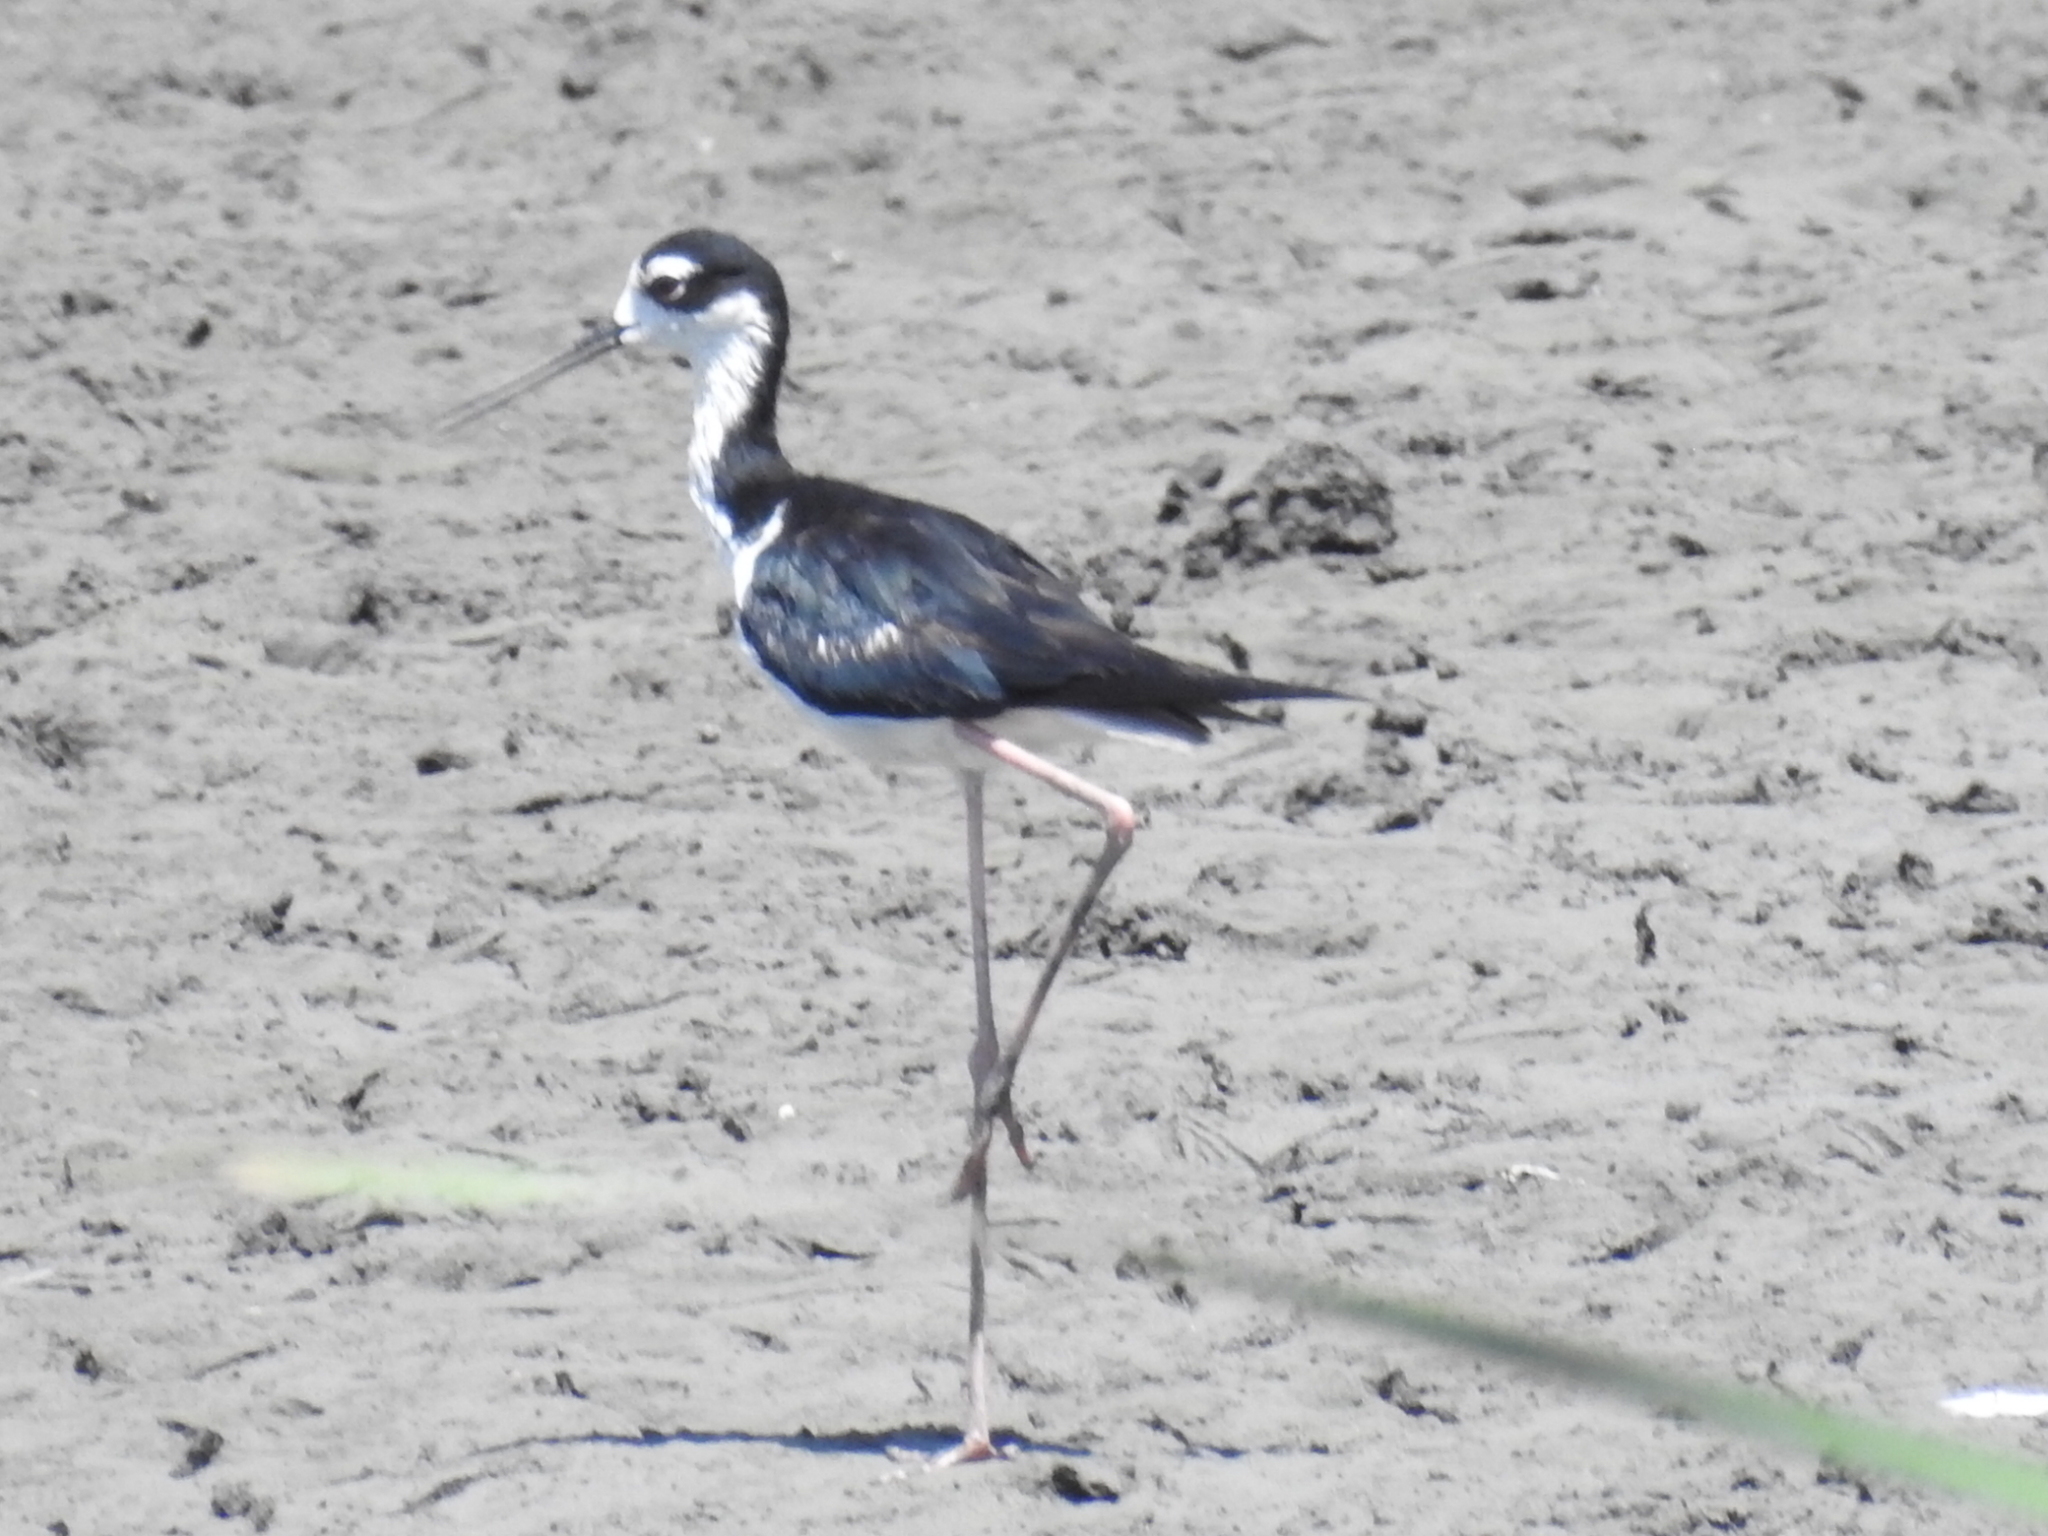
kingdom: Animalia
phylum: Chordata
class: Aves
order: Charadriiformes
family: Recurvirostridae
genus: Himantopus
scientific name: Himantopus mexicanus
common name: Black-necked stilt
